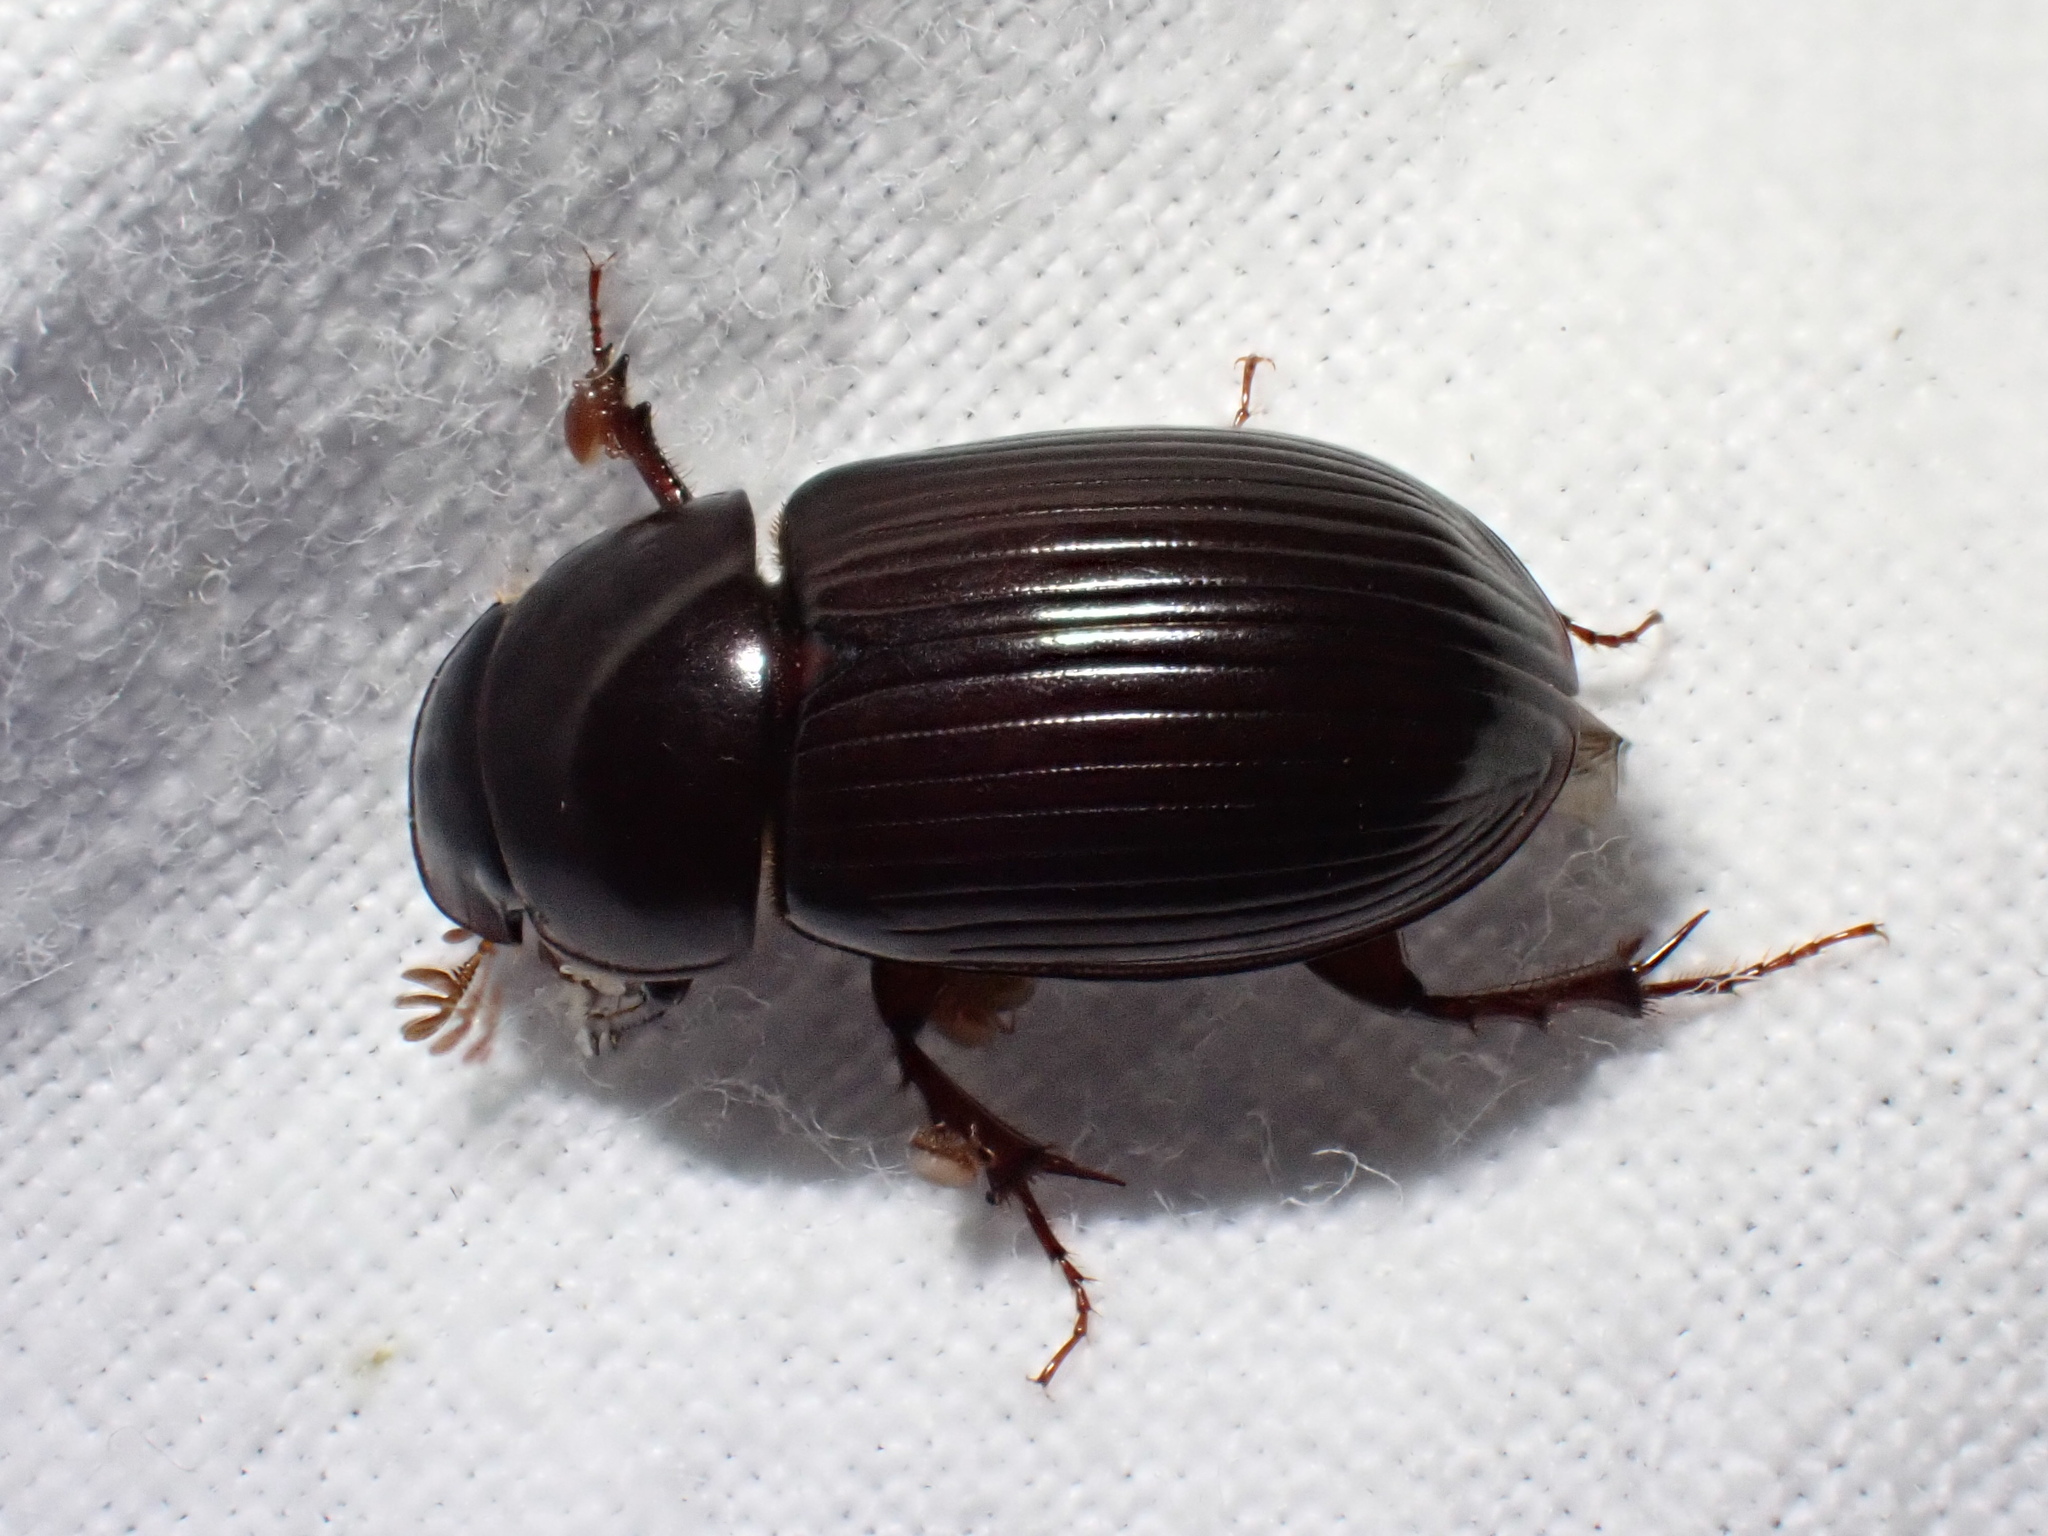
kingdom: Animalia
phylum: Arthropoda
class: Insecta
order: Coleoptera
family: Scarabaeidae
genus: Acrossus
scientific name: Acrossus rufipes
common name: Night-flying dung beetle
